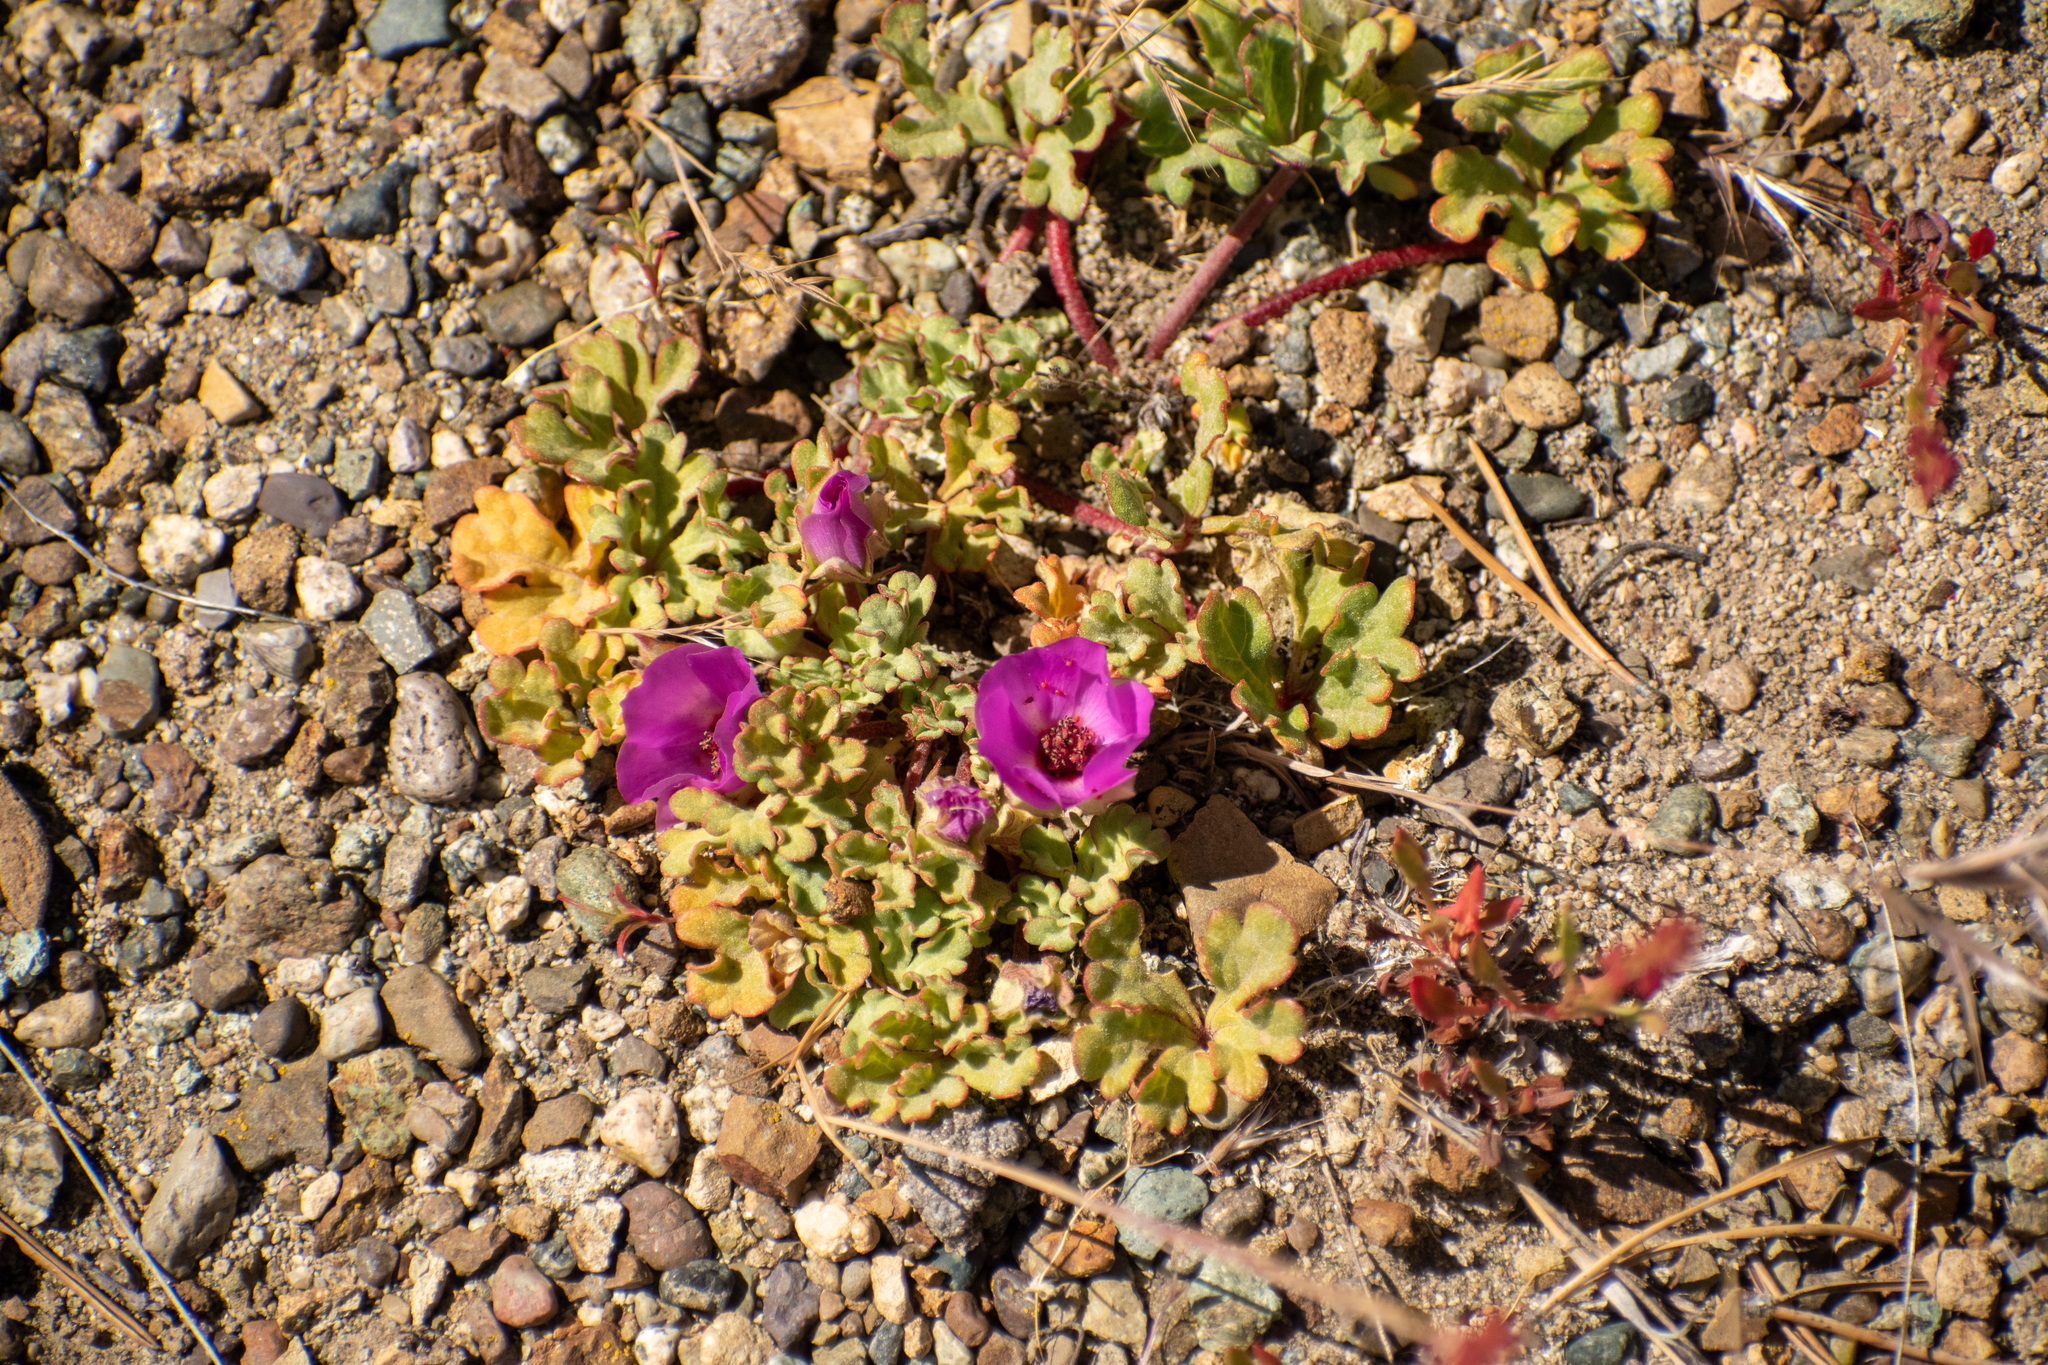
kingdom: Plantae
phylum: Tracheophyta
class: Magnoliopsida
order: Malvales
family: Malvaceae
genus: Tarasa
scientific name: Tarasa humilis
